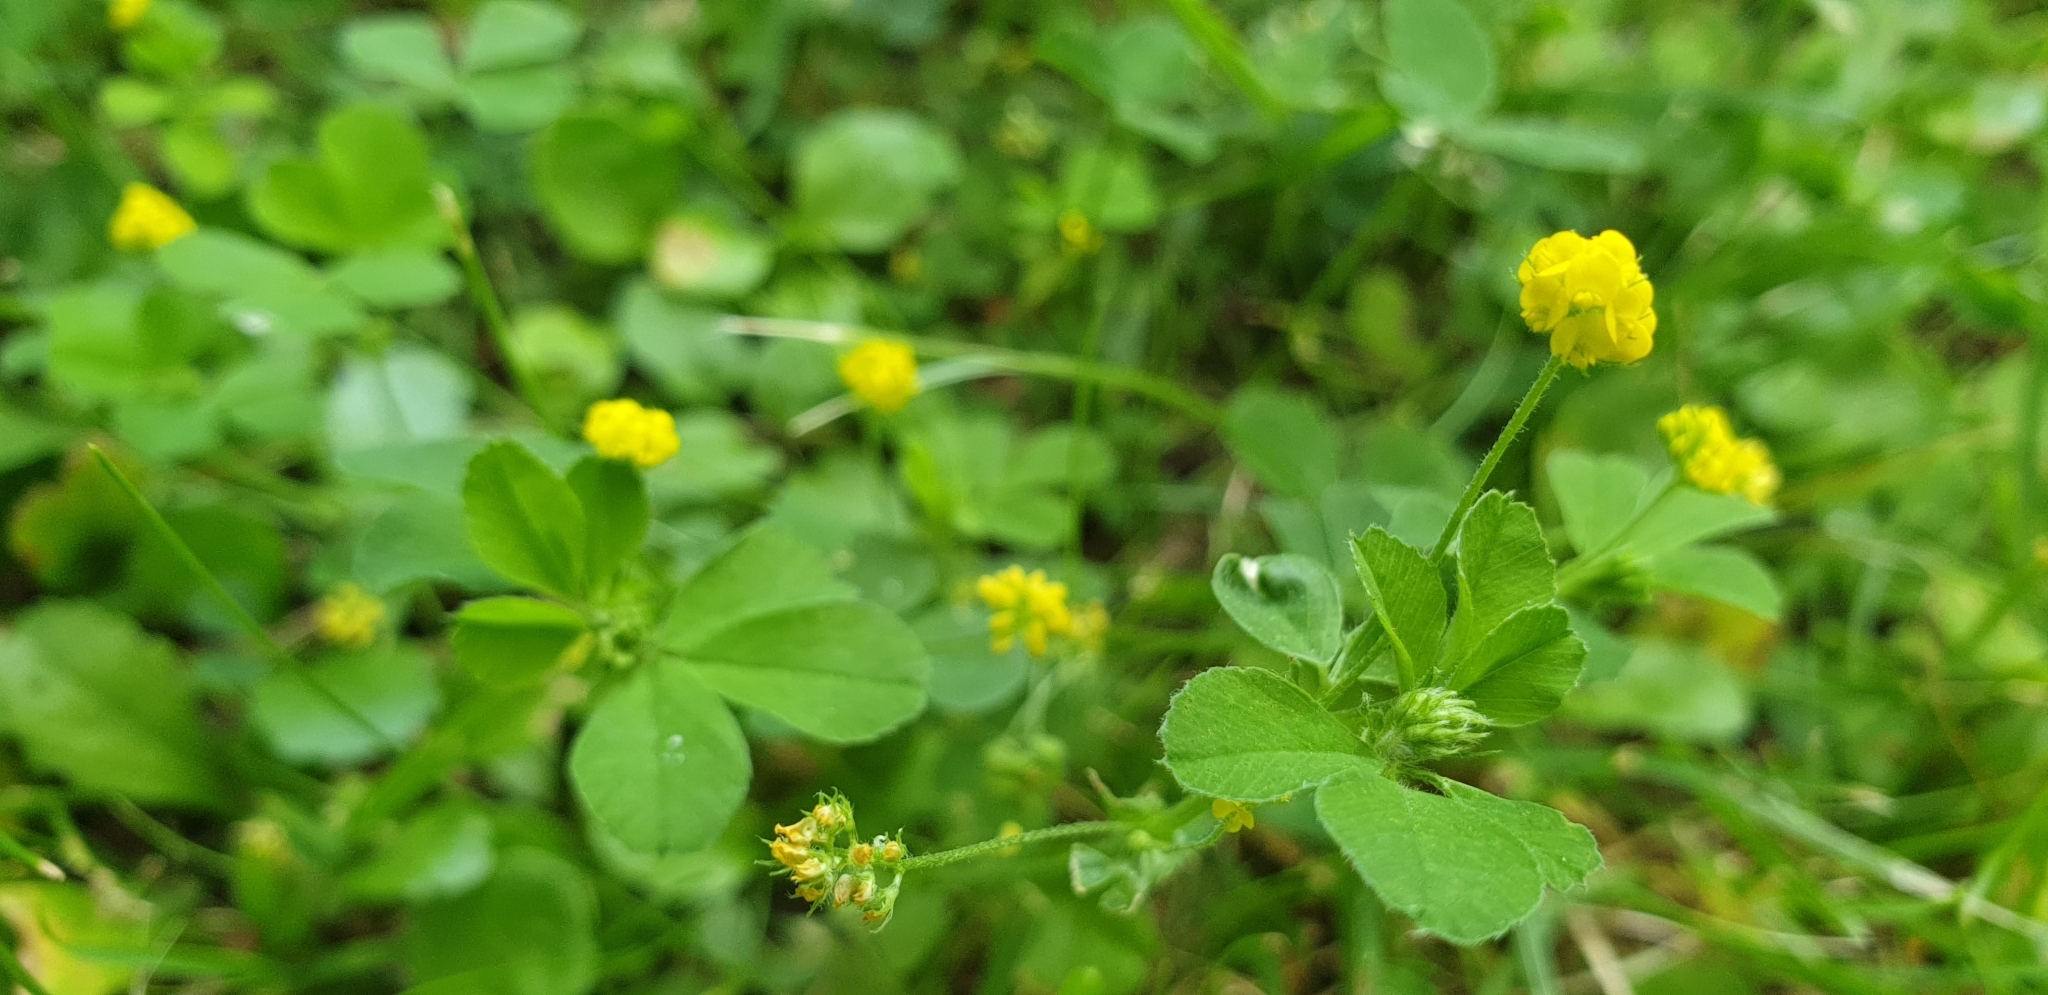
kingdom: Plantae
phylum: Tracheophyta
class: Magnoliopsida
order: Fabales
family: Fabaceae
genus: Medicago
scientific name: Medicago lupulina
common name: Black medick
